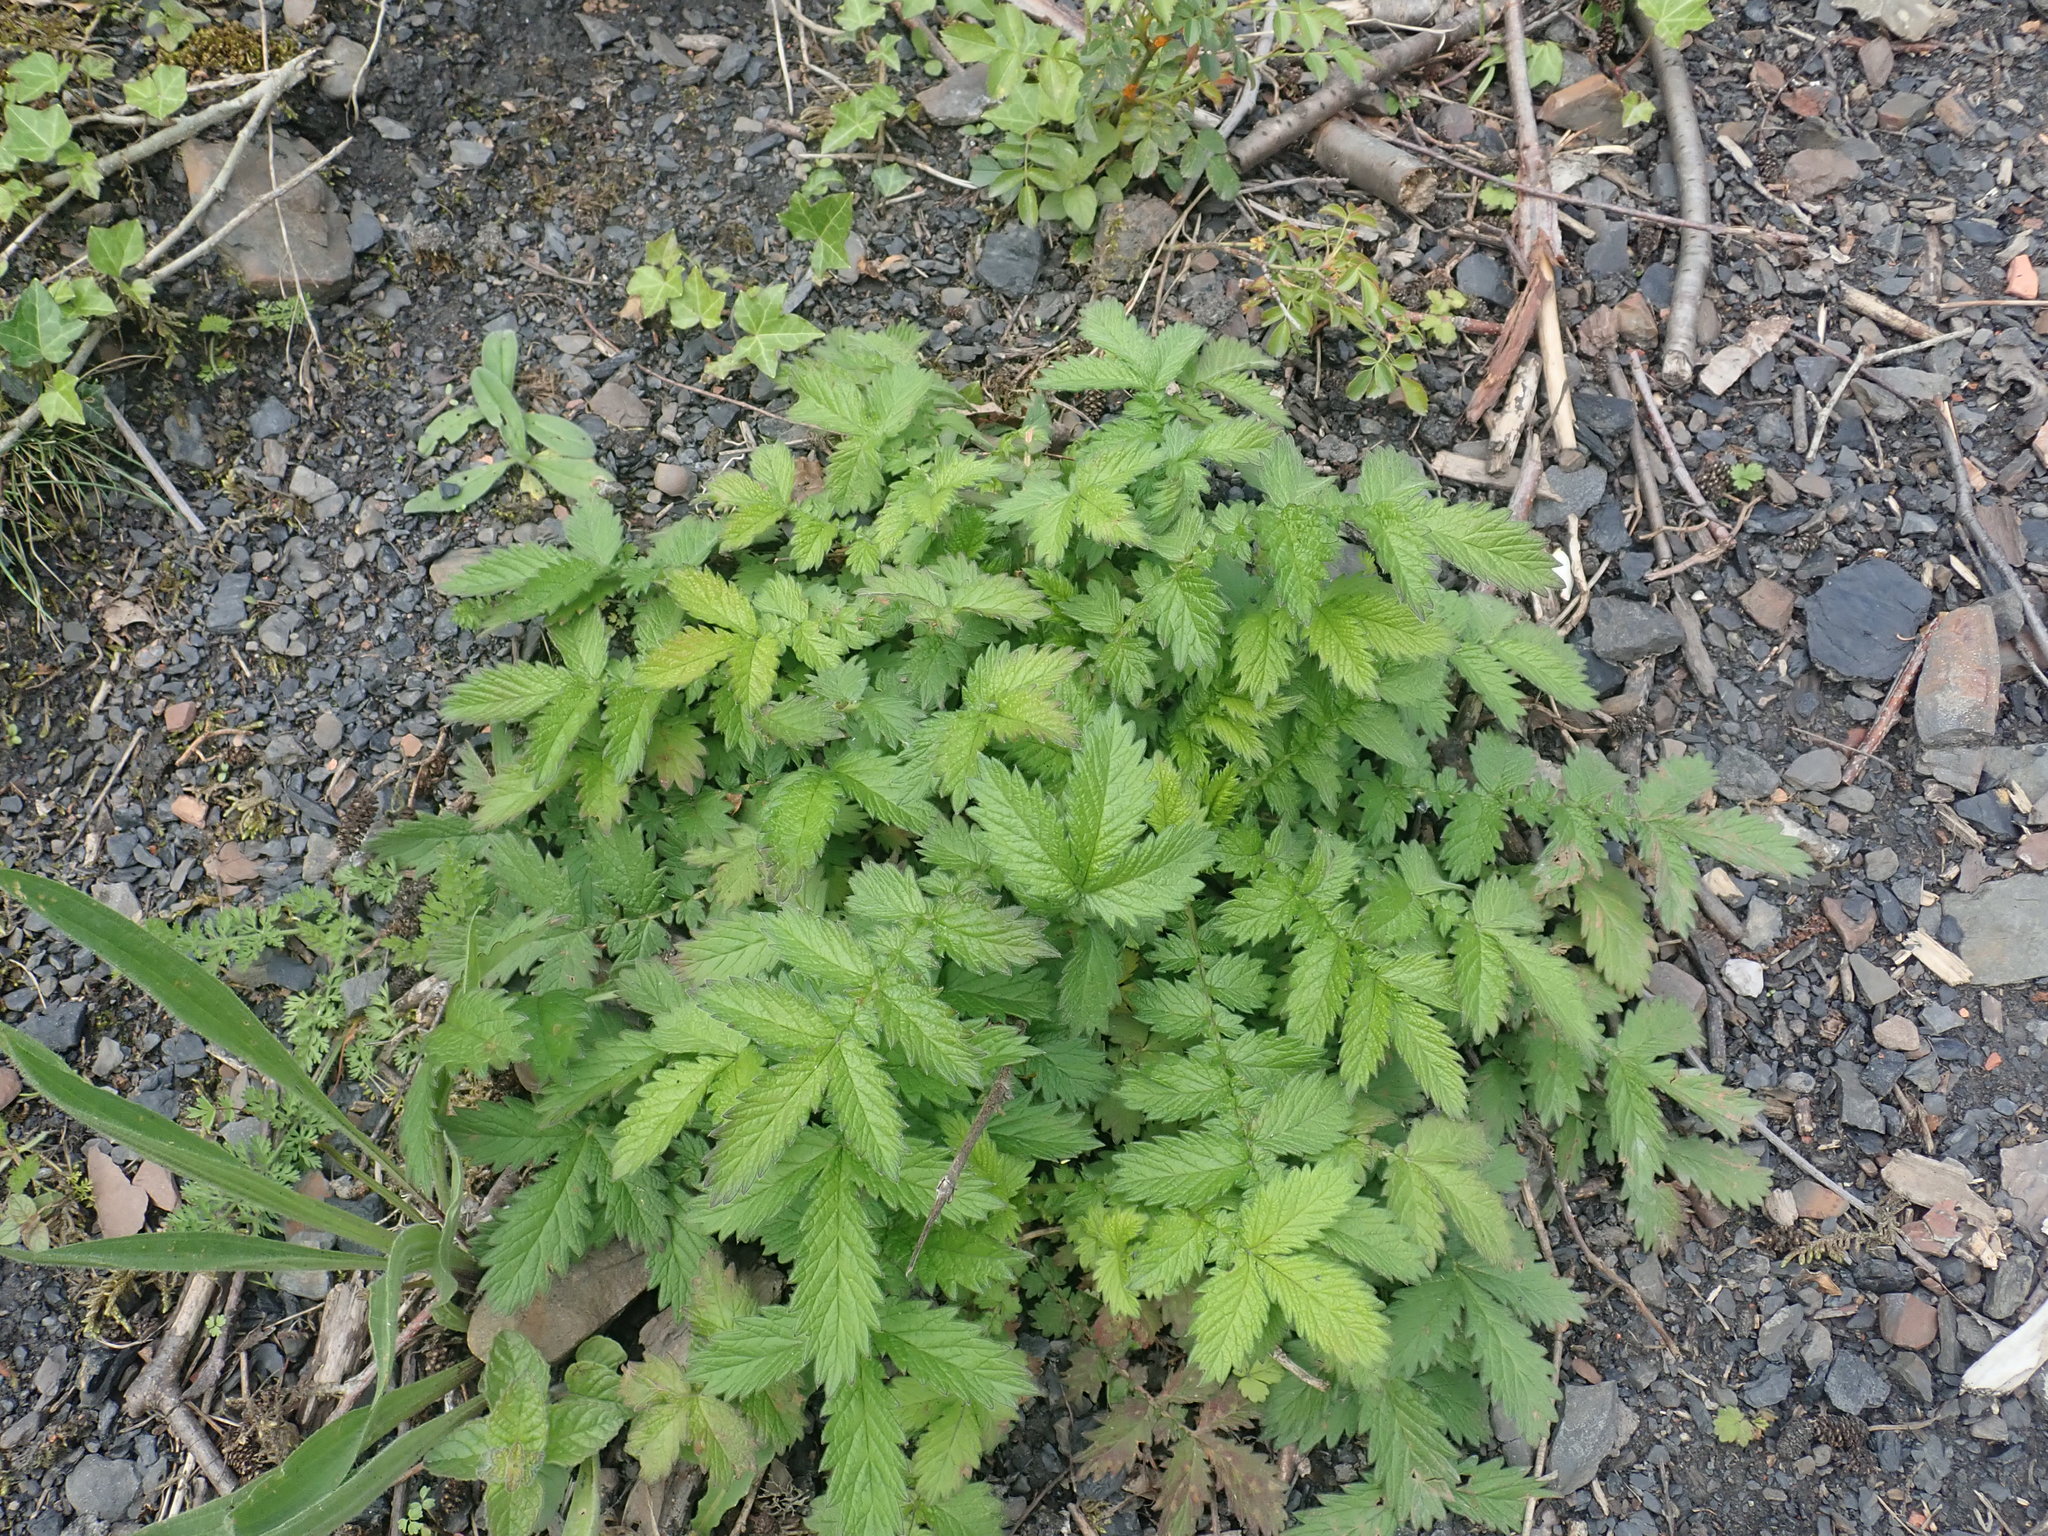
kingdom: Plantae
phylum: Tracheophyta
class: Magnoliopsida
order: Rosales
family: Rosaceae
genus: Agrimonia
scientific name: Agrimonia eupatoria
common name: Agrimony
